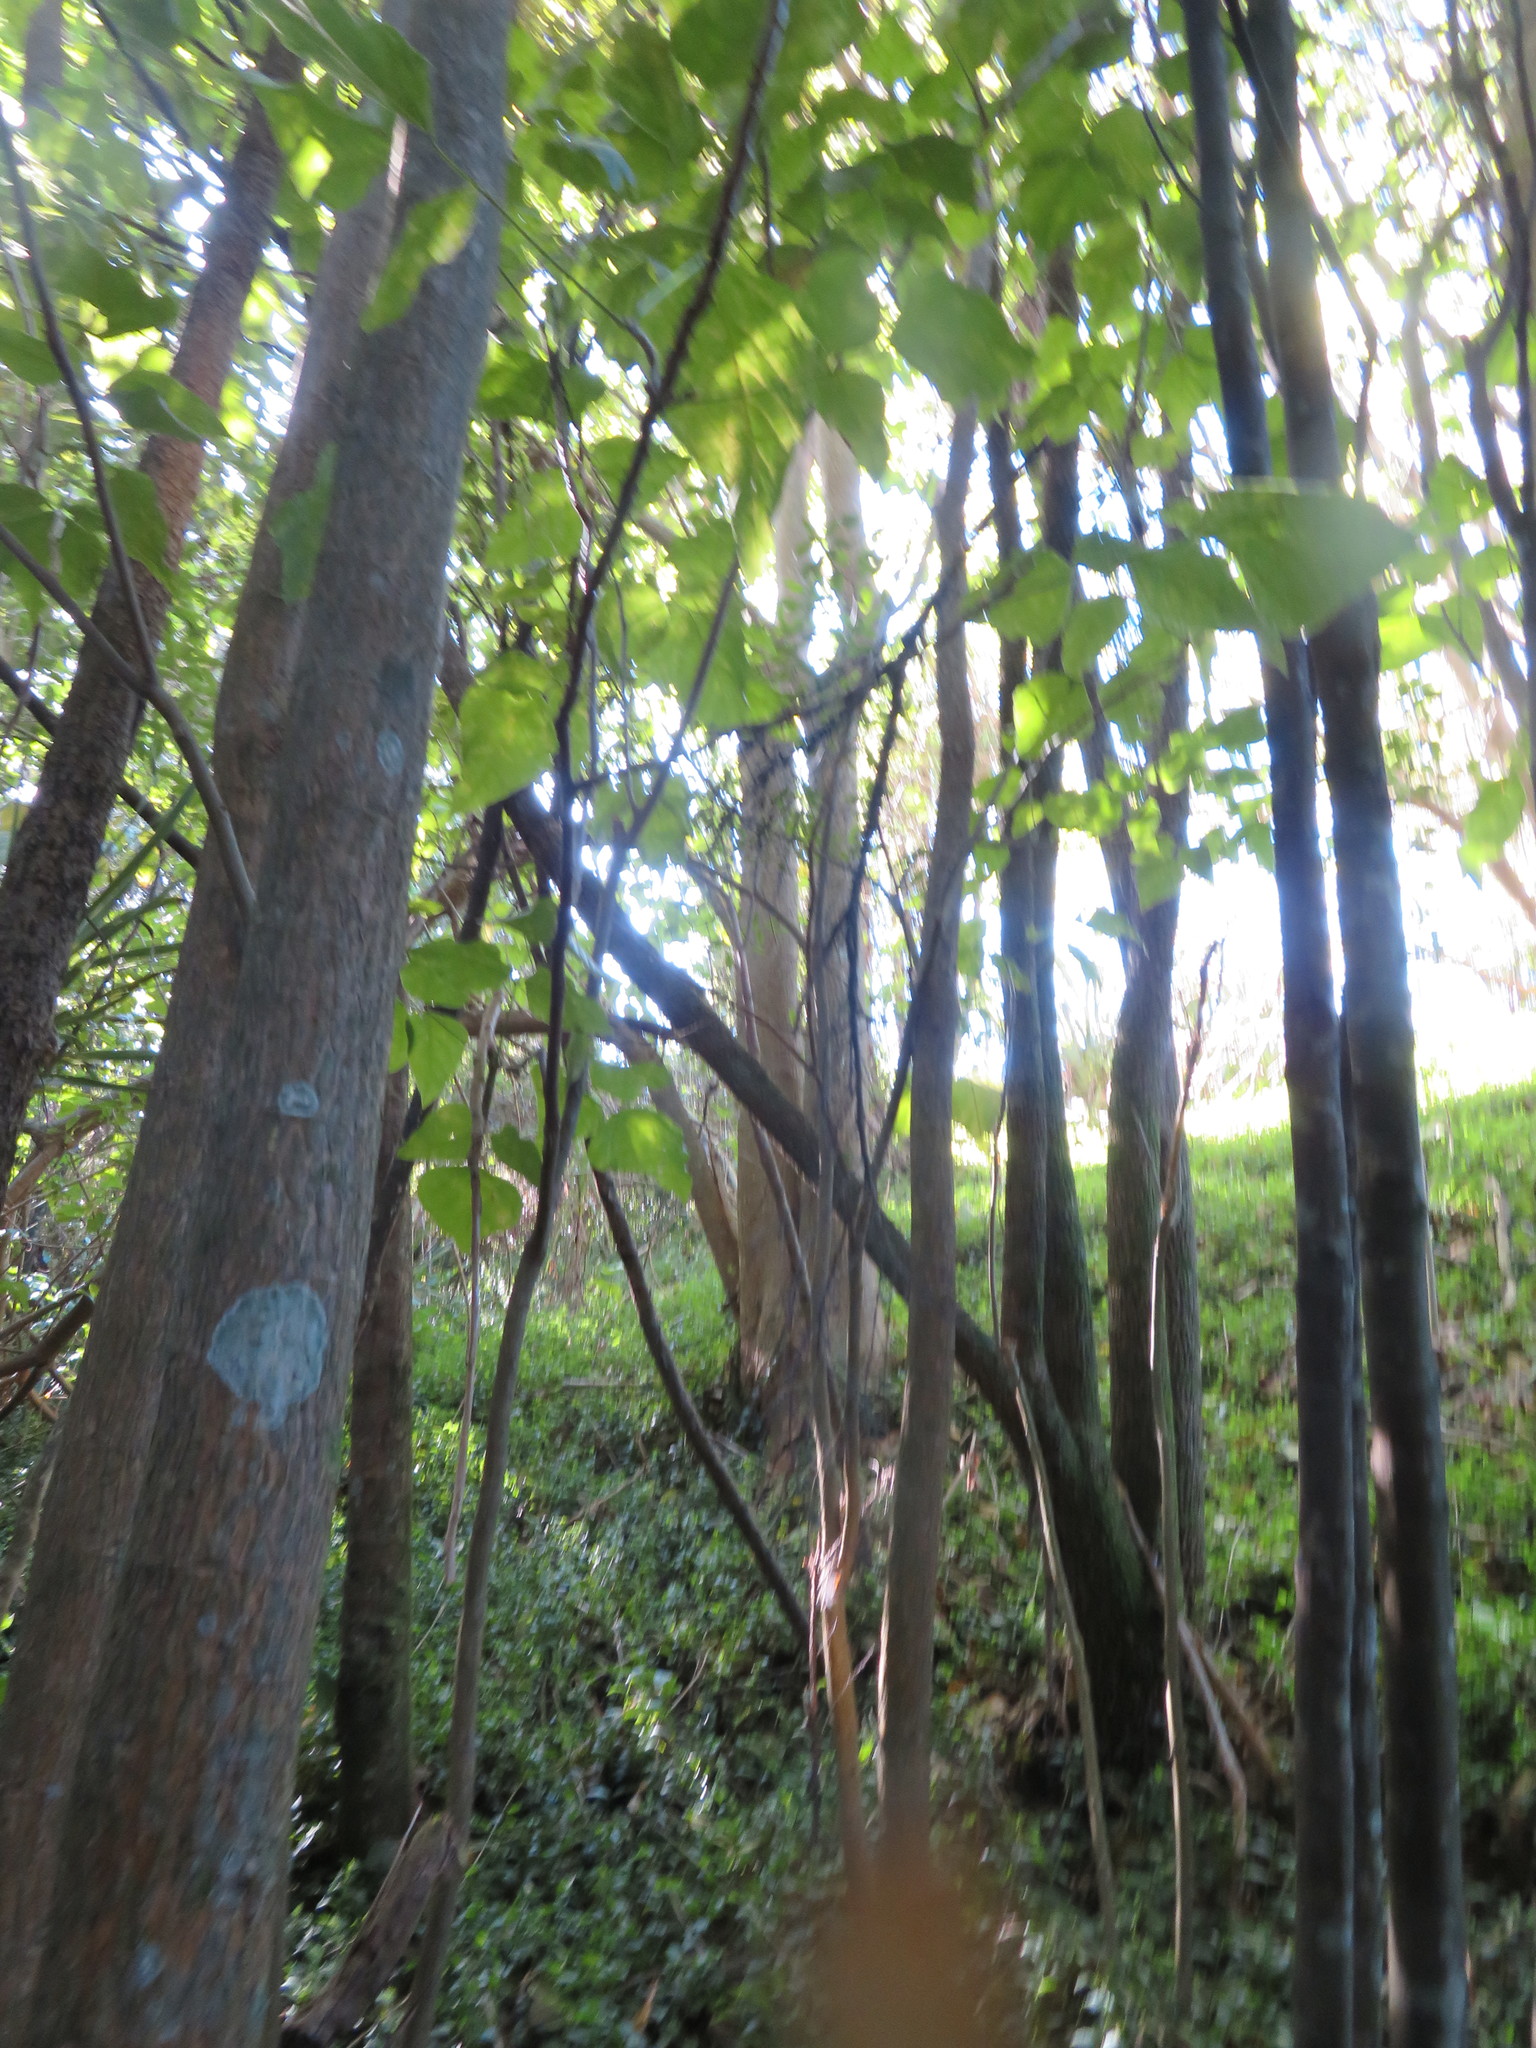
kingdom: Plantae
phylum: Tracheophyta
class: Magnoliopsida
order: Fabales
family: Fabaceae
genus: Erythrina
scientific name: Erythrina sykesii
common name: Coraltree
